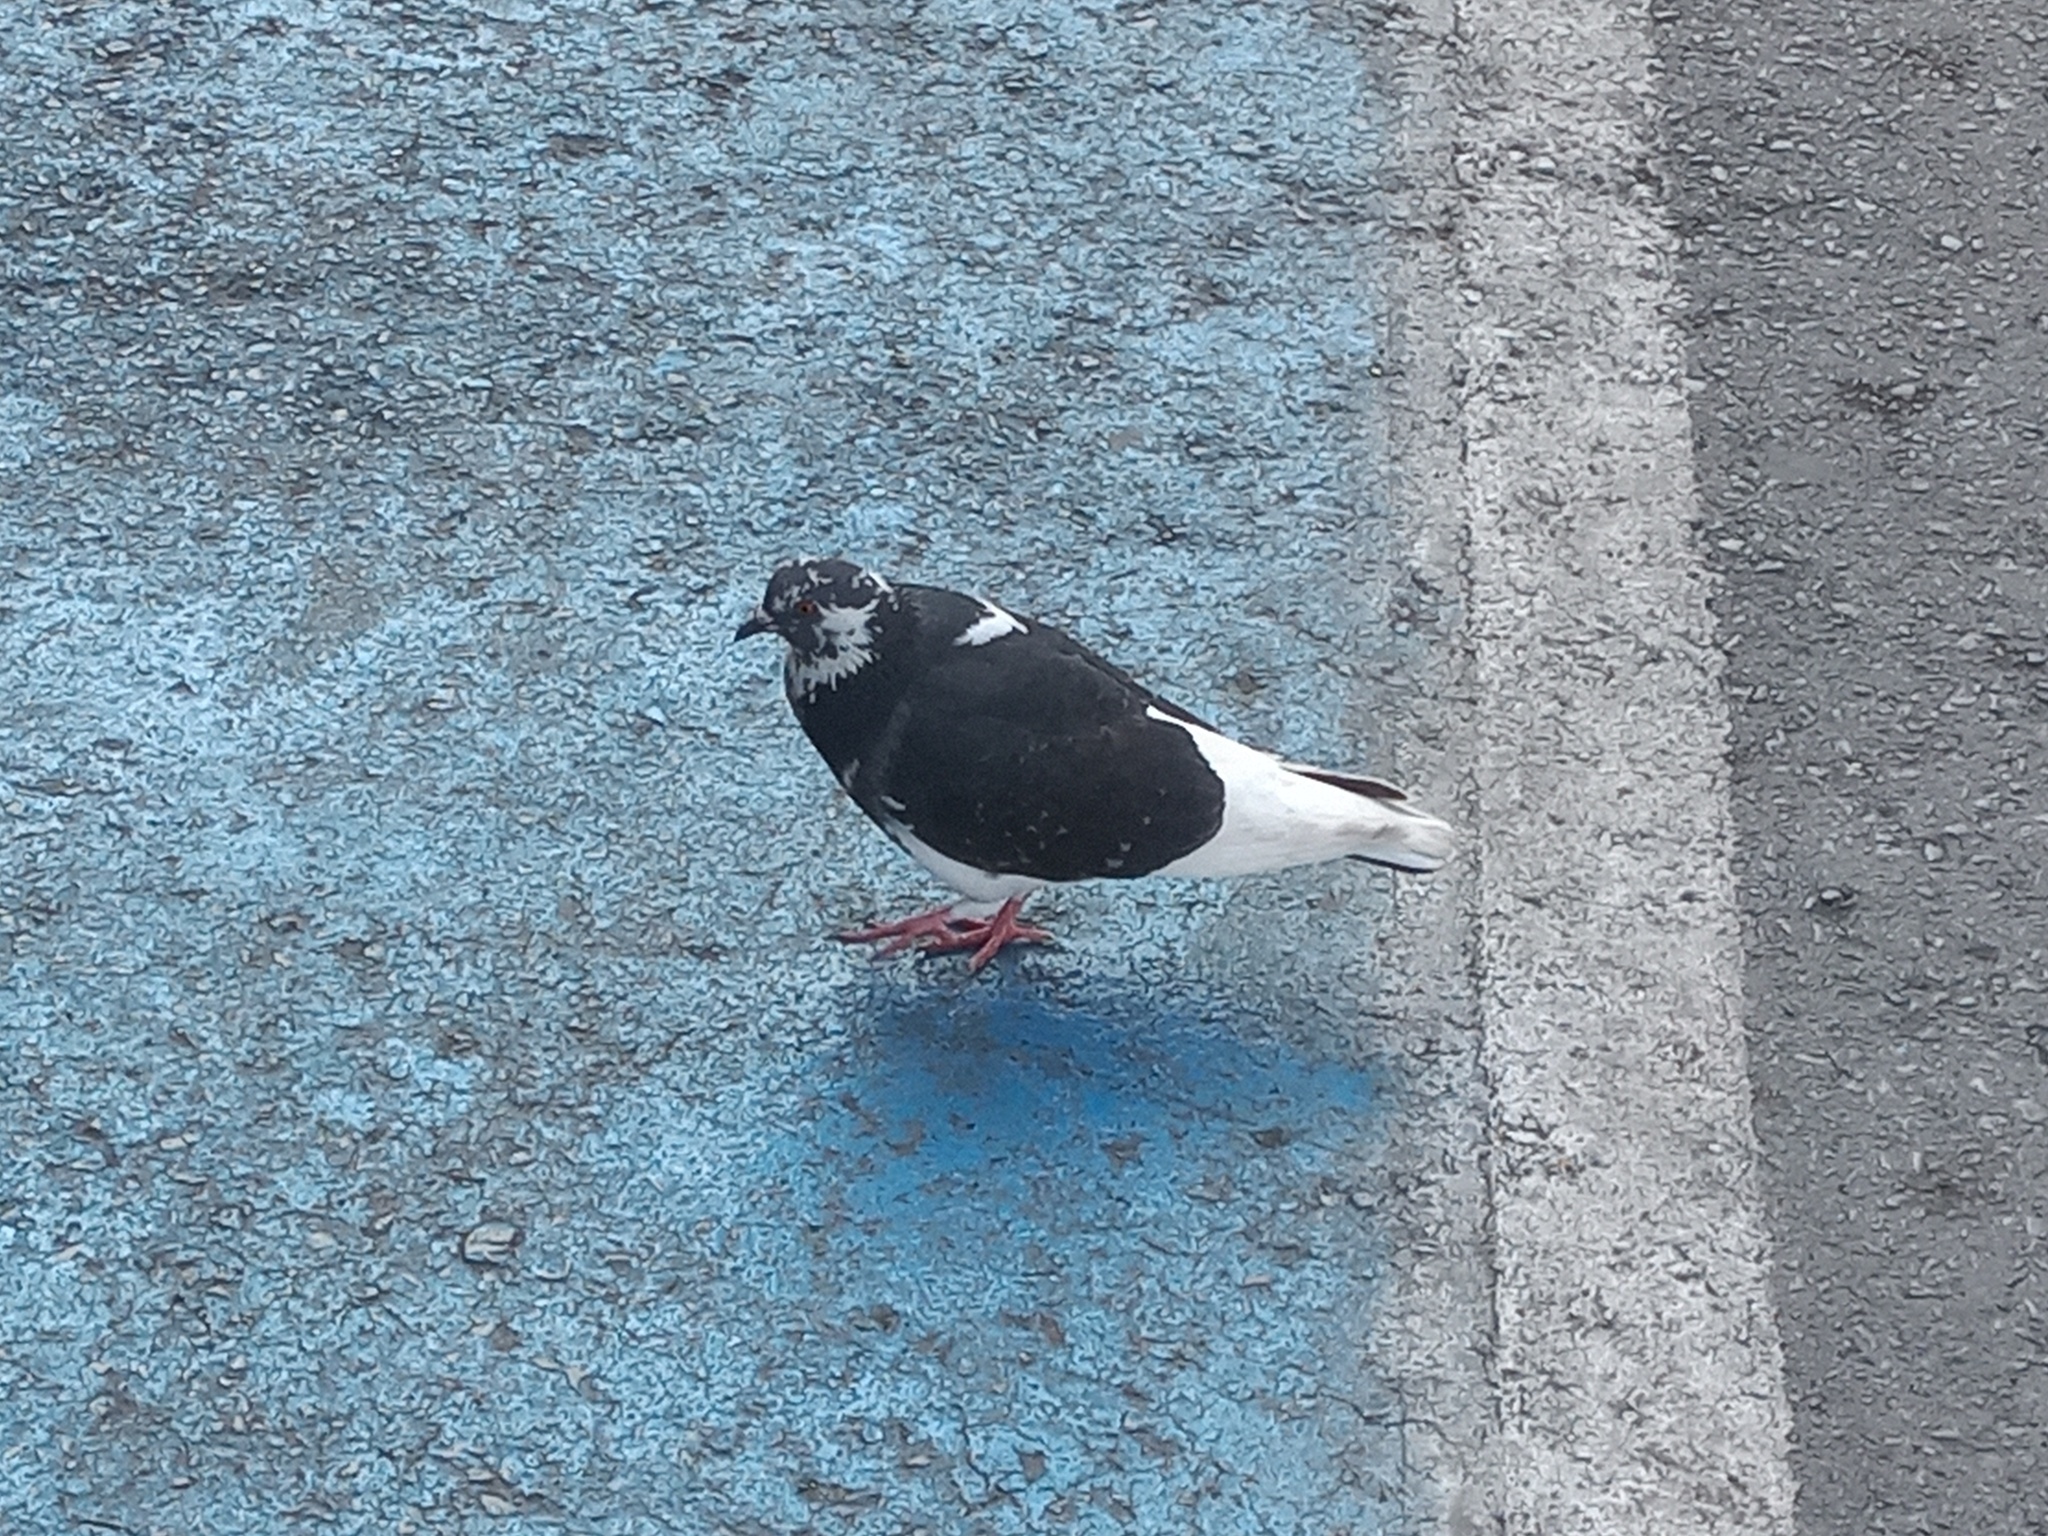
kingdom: Animalia
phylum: Chordata
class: Aves
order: Columbiformes
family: Columbidae
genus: Columba
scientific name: Columba livia
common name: Rock pigeon
